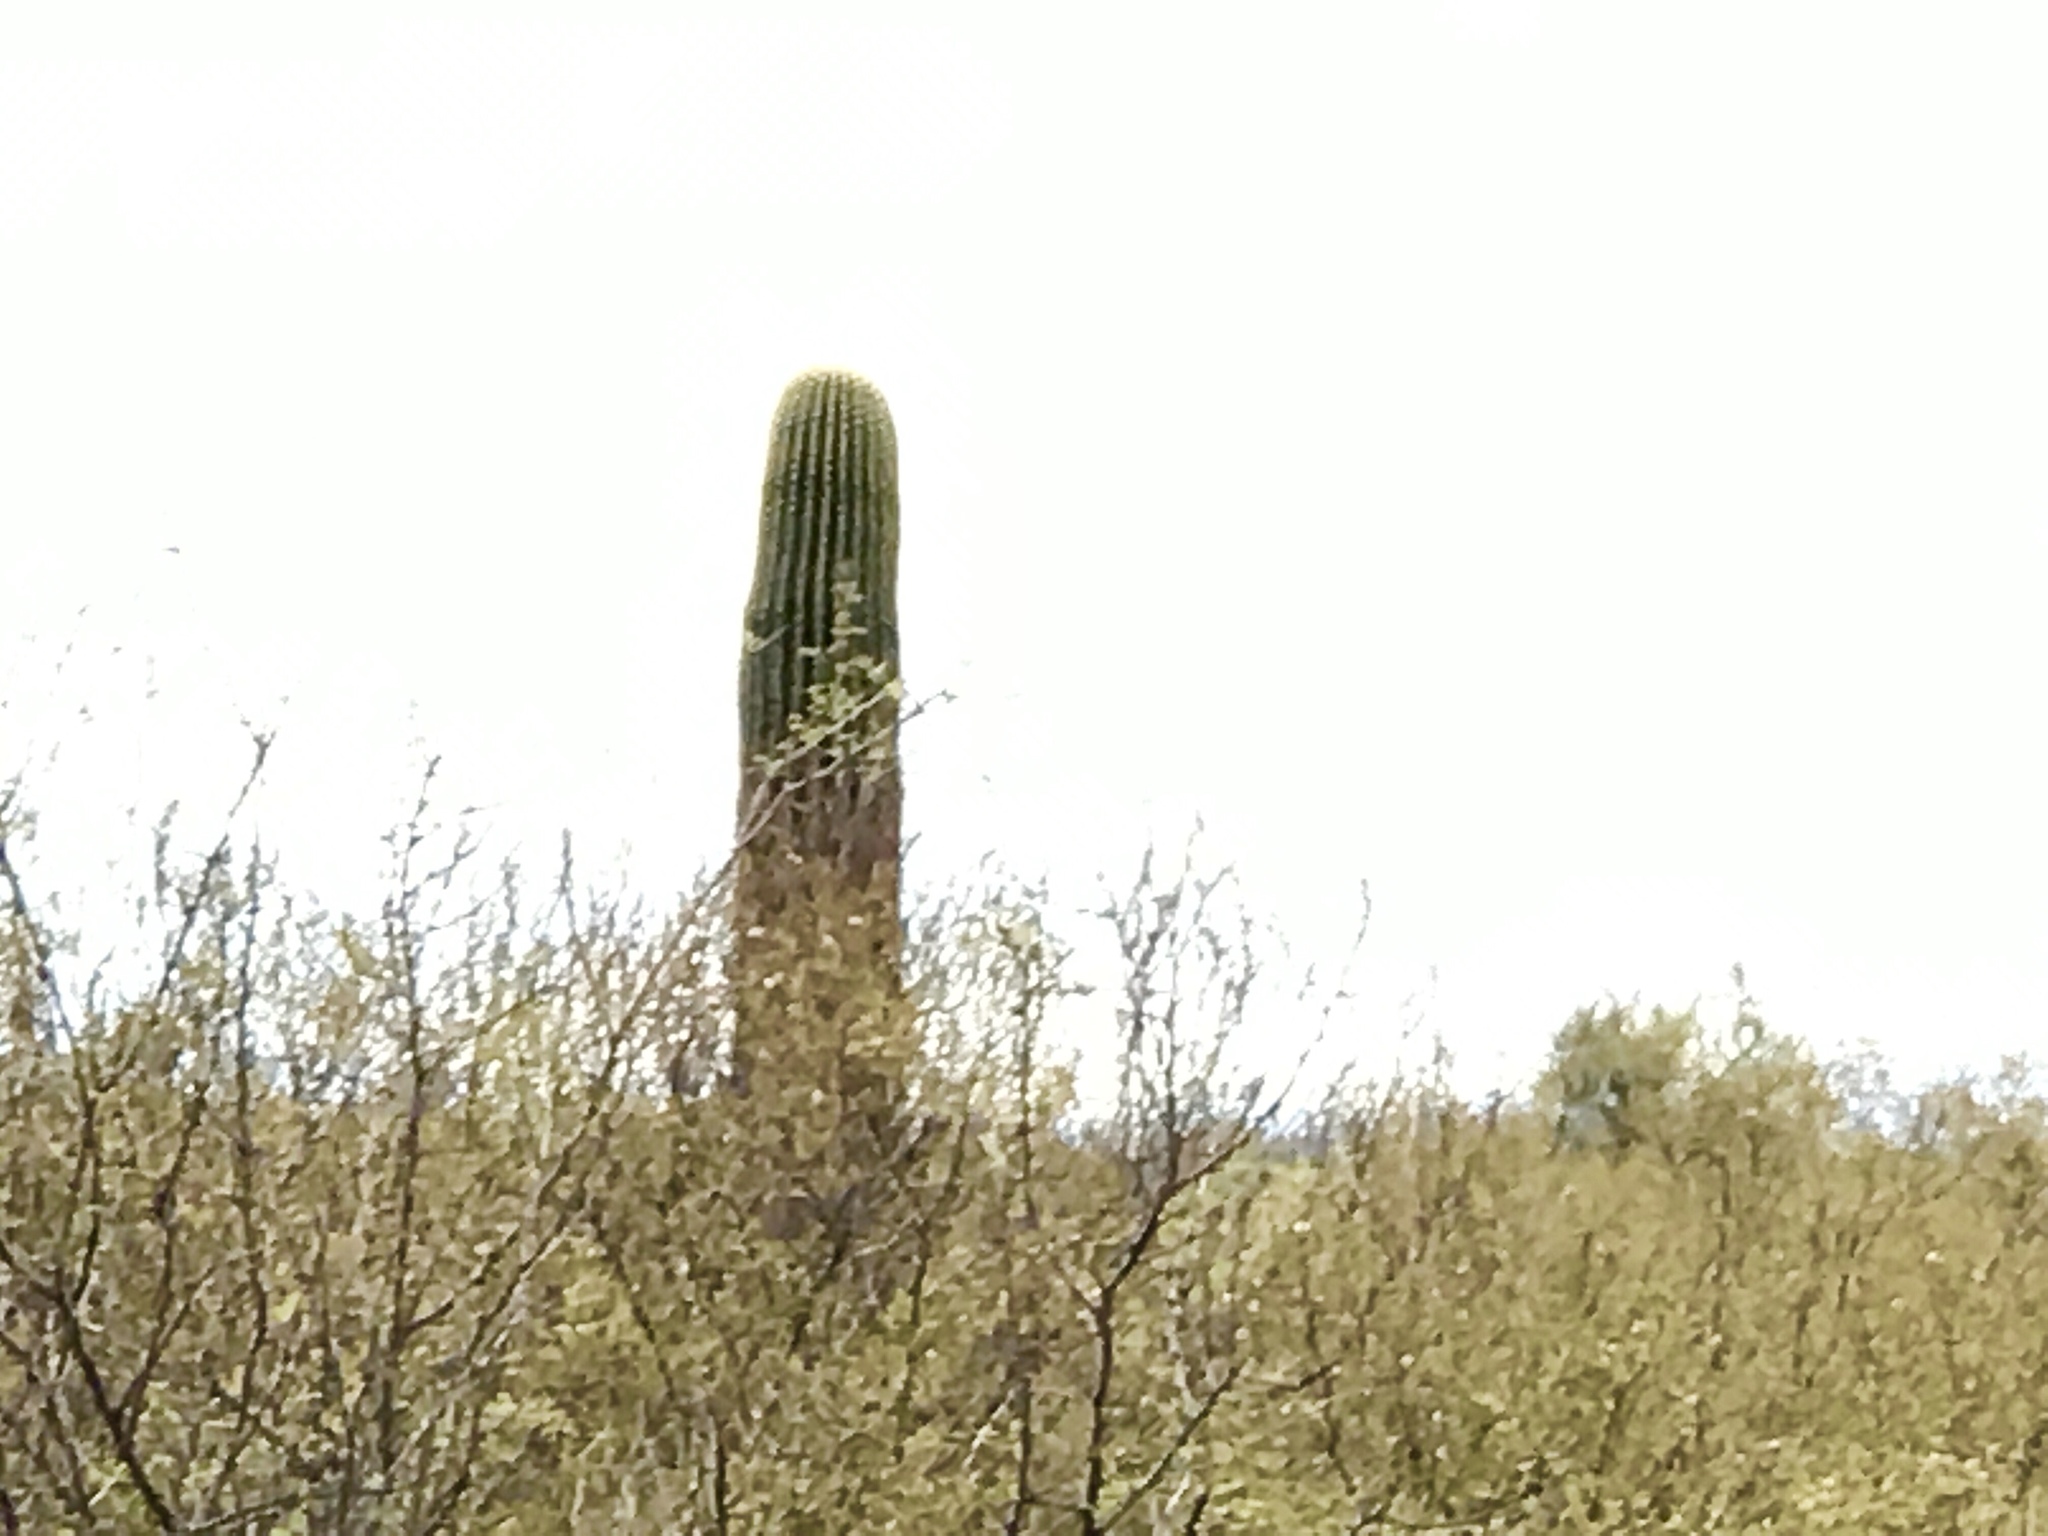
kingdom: Plantae
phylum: Tracheophyta
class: Magnoliopsida
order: Caryophyllales
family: Cactaceae
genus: Carnegiea
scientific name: Carnegiea gigantea
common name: Saguaro
